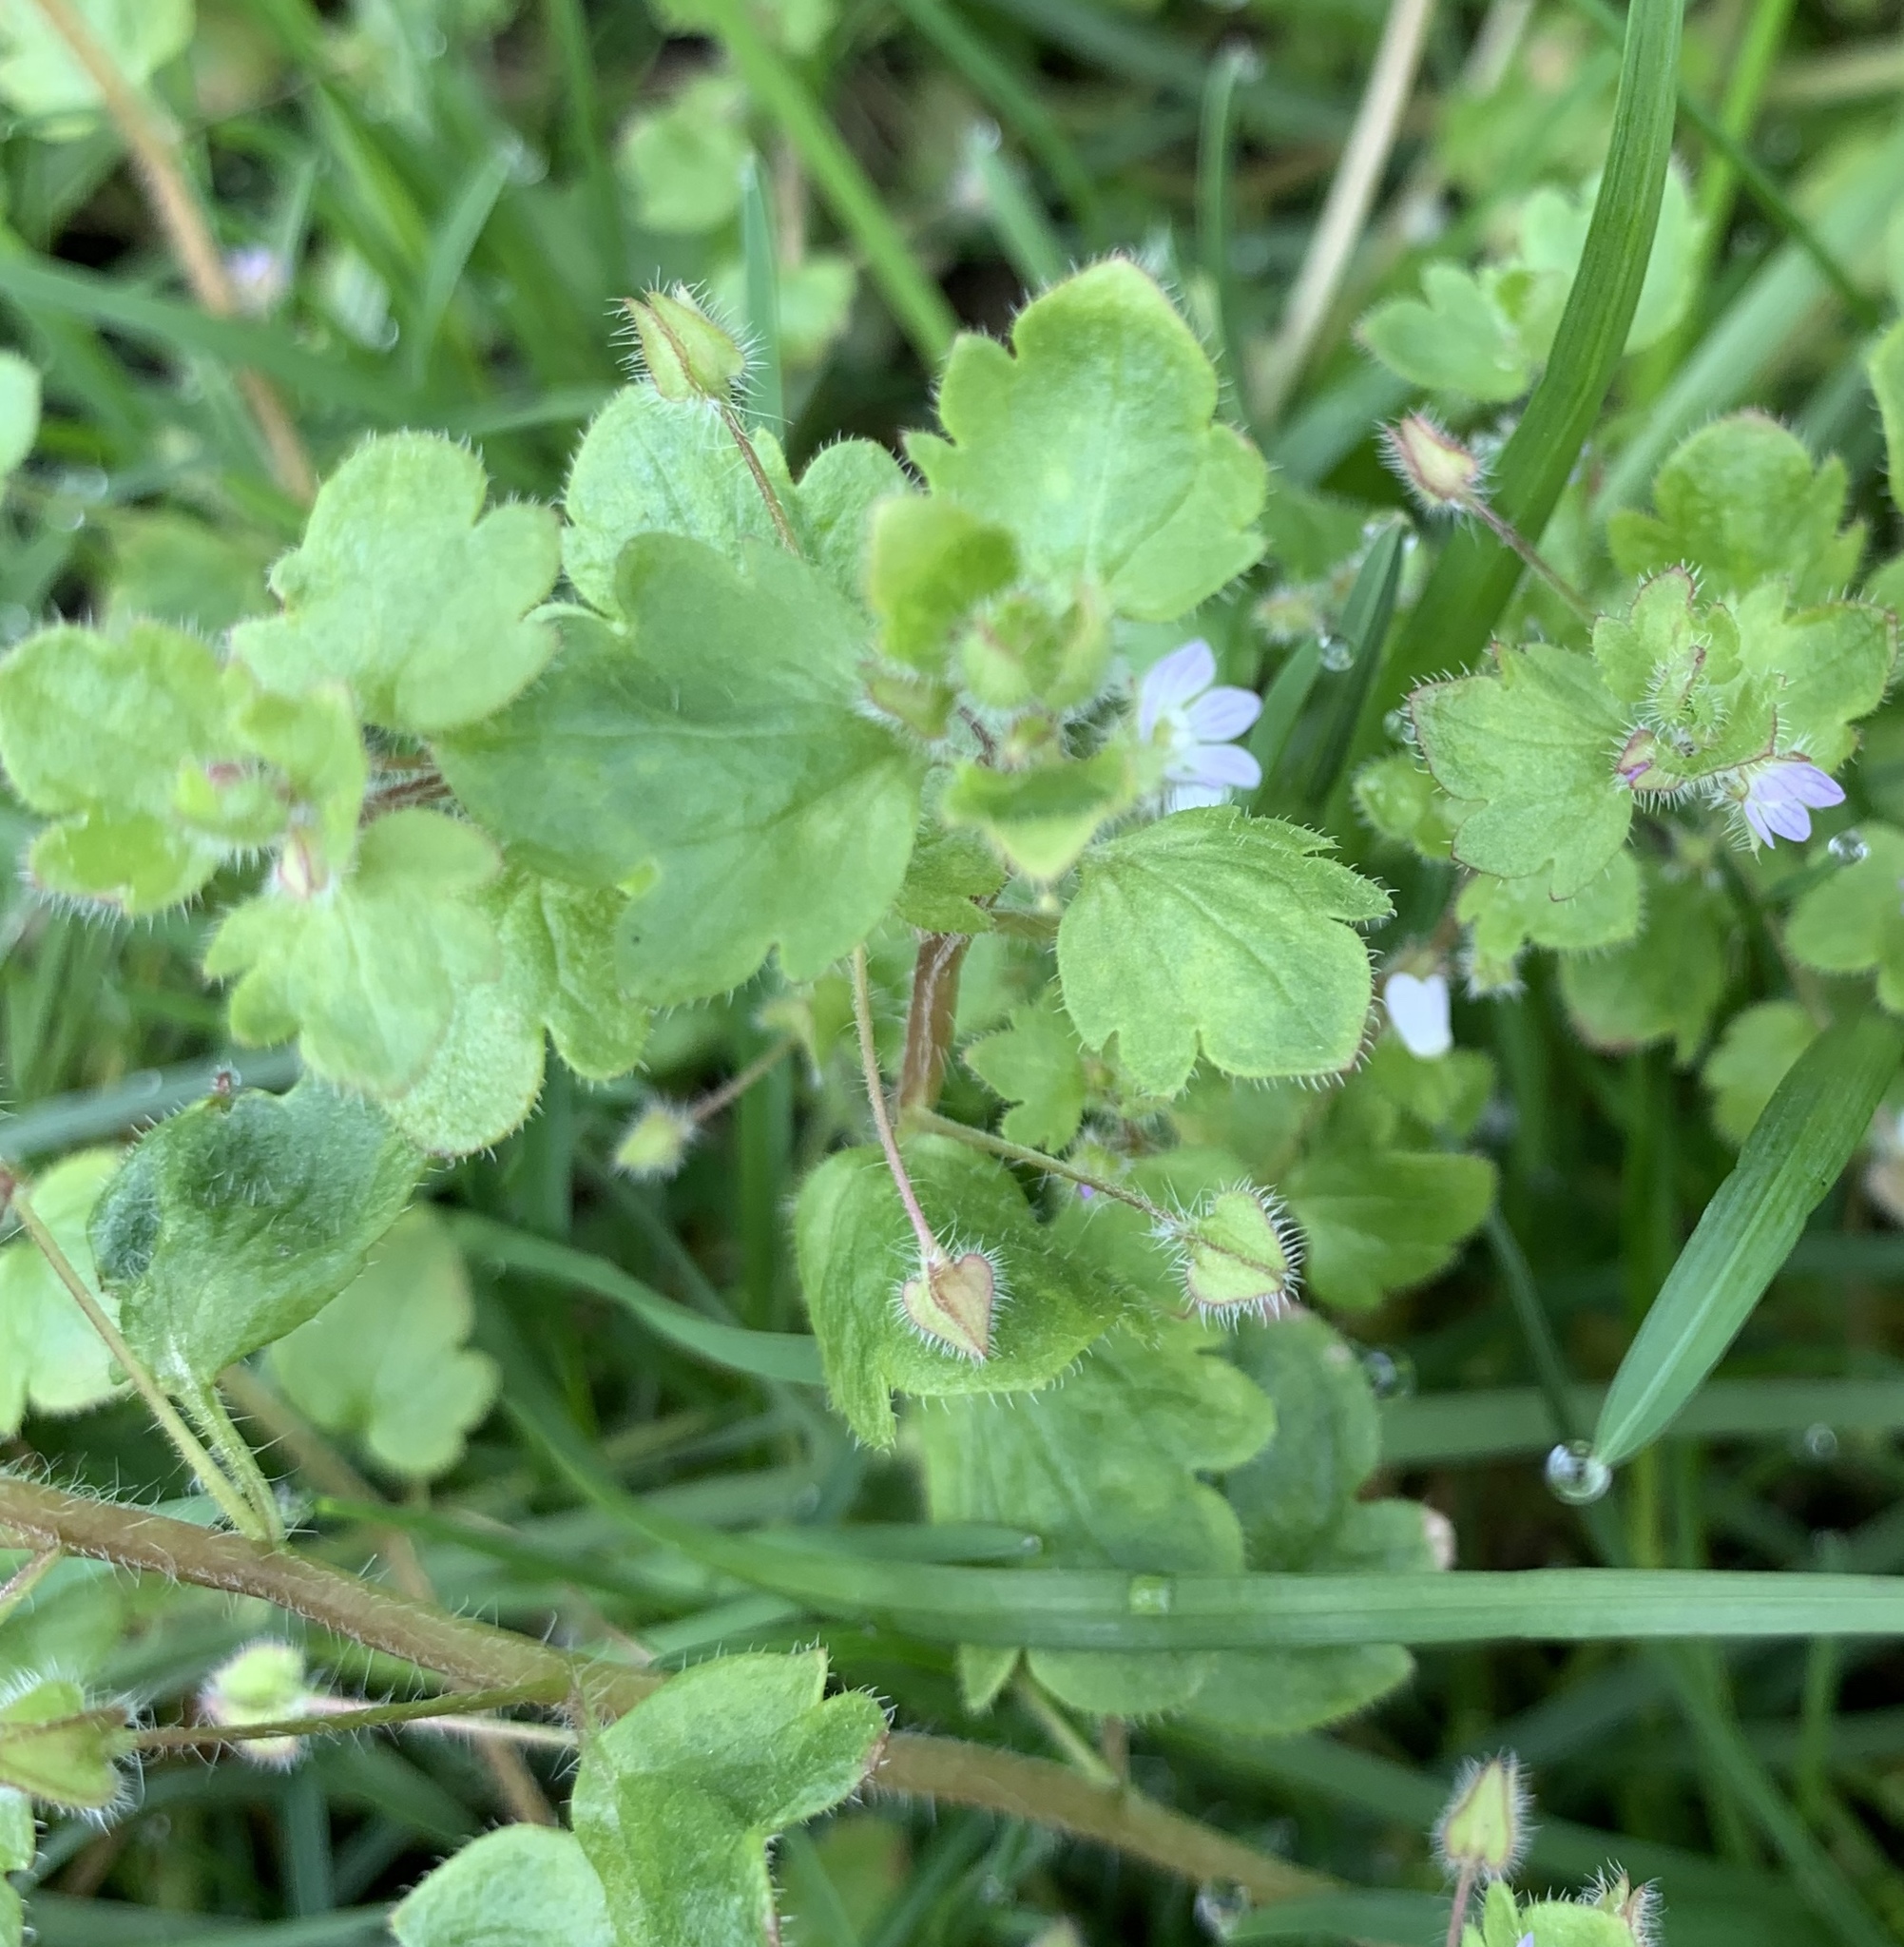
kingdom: Plantae
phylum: Tracheophyta
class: Magnoliopsida
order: Lamiales
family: Plantaginaceae
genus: Veronica
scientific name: Veronica hederifolia
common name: Ivy-leaved speedwell
